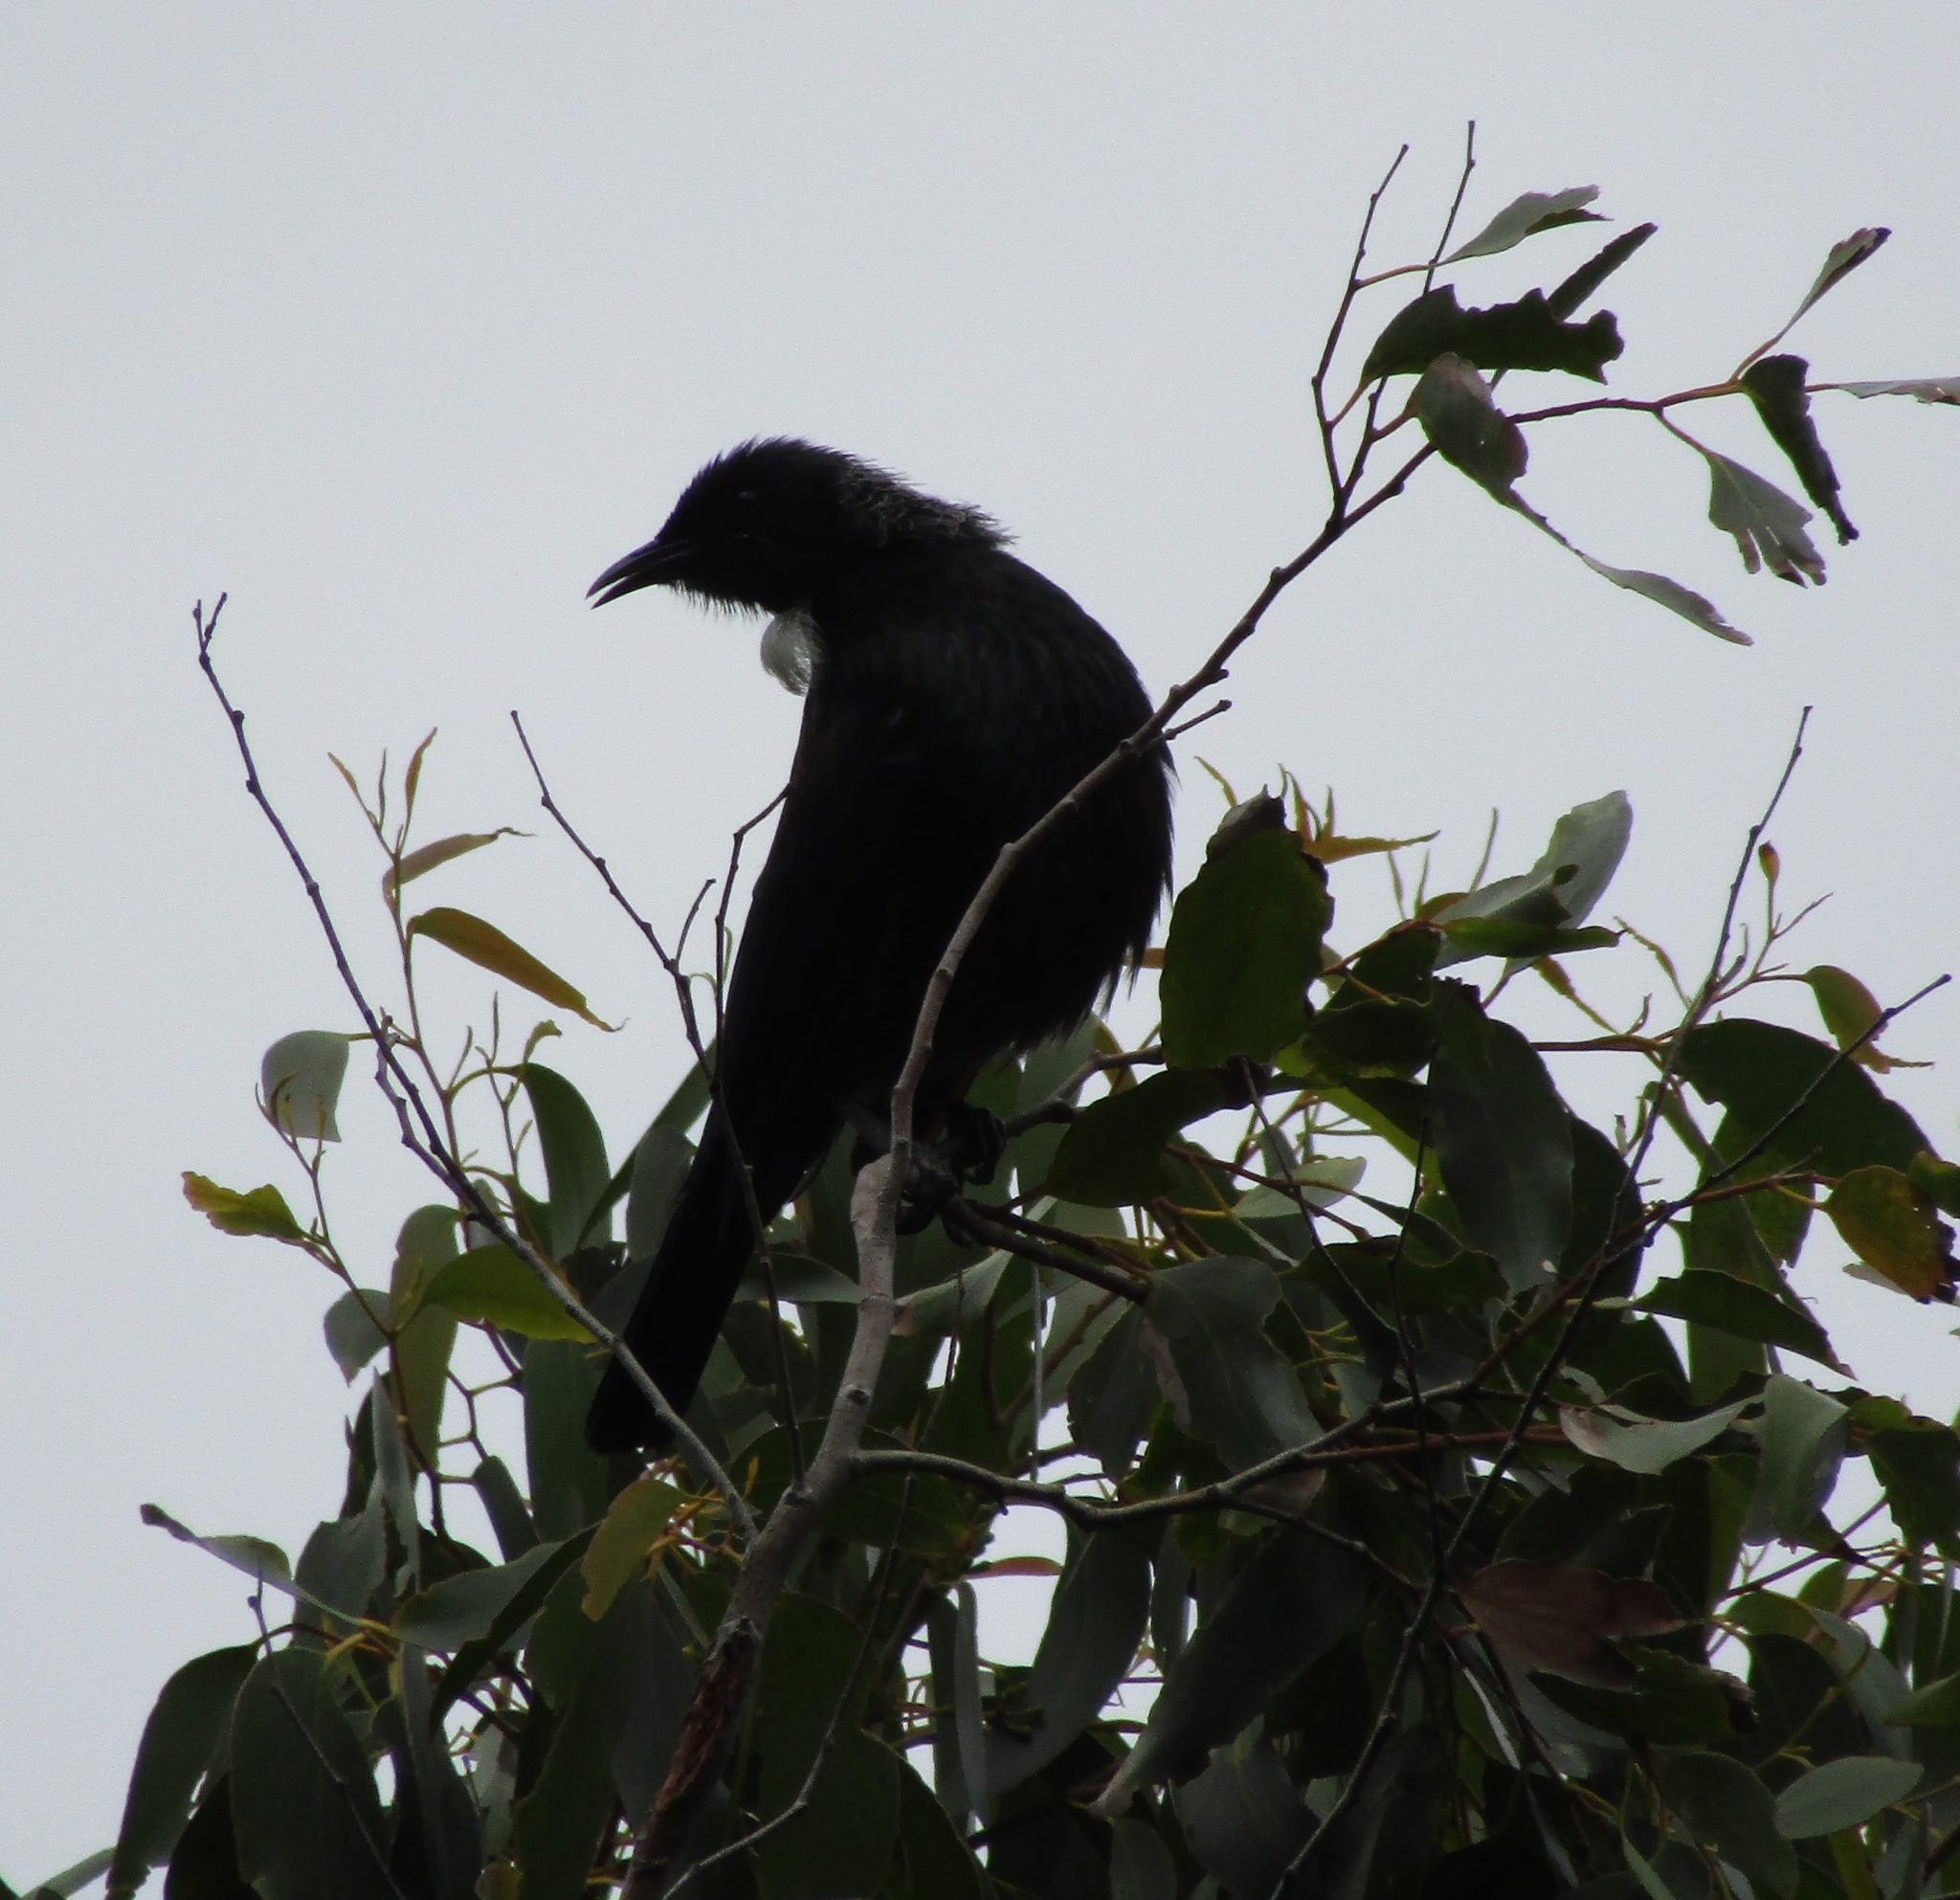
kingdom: Animalia
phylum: Chordata
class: Aves
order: Passeriformes
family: Meliphagidae
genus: Prosthemadera
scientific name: Prosthemadera novaeseelandiae
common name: Tui
